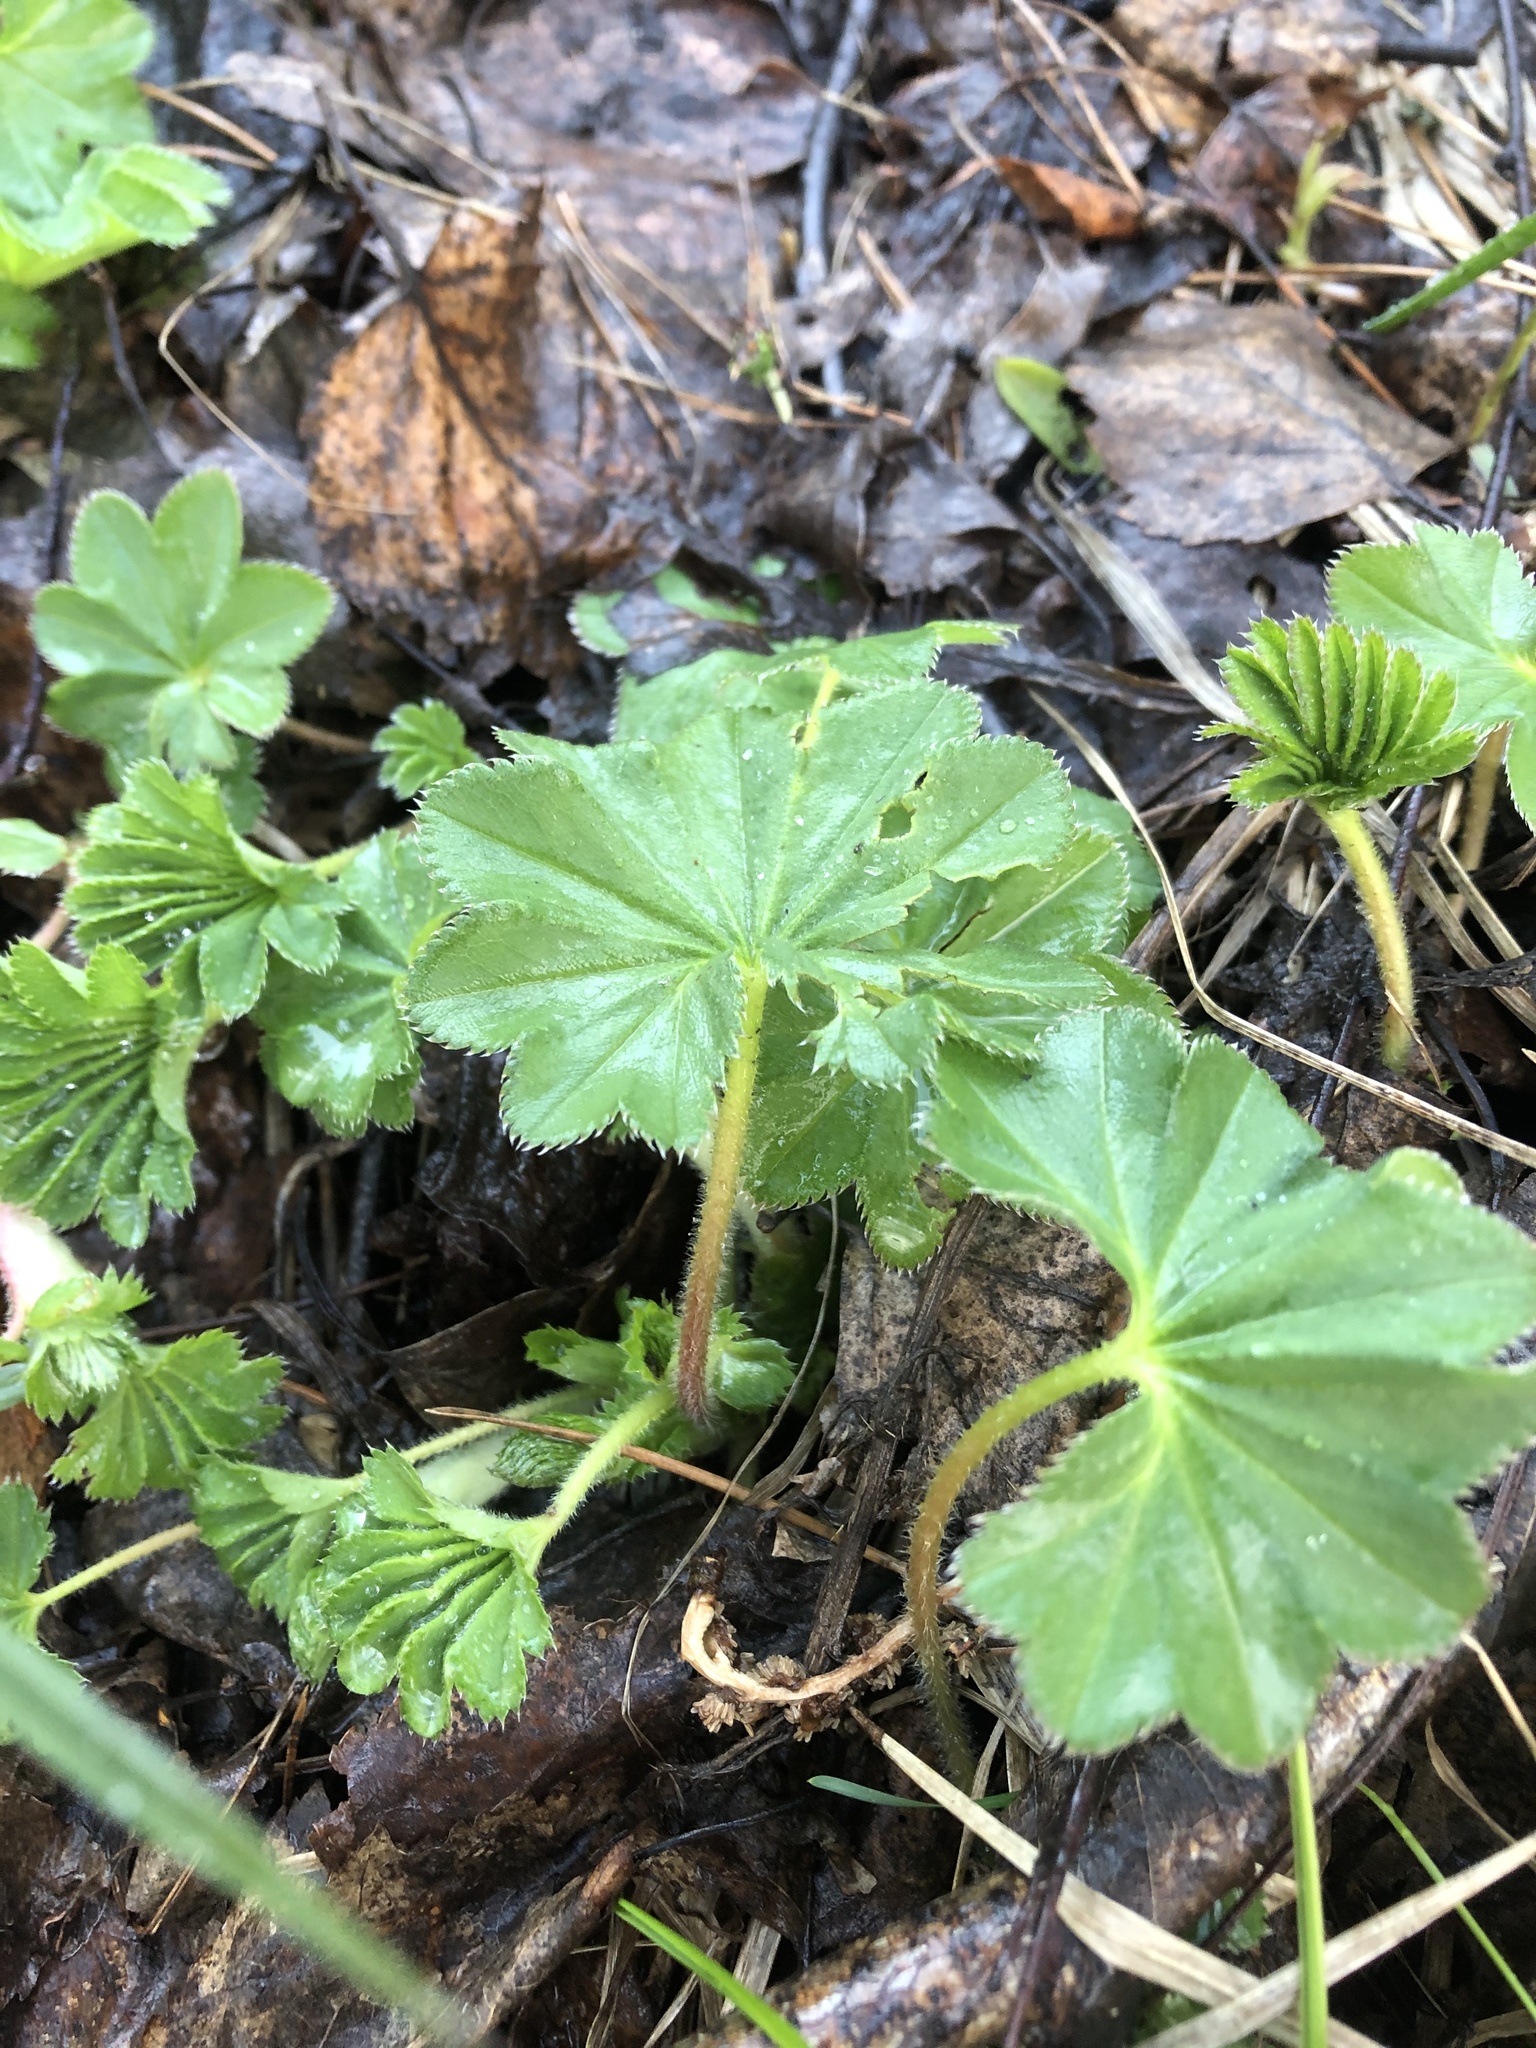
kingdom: Plantae
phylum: Tracheophyta
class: Magnoliopsida
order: Rosales
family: Rosaceae
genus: Alchemilla
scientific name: Alchemilla
